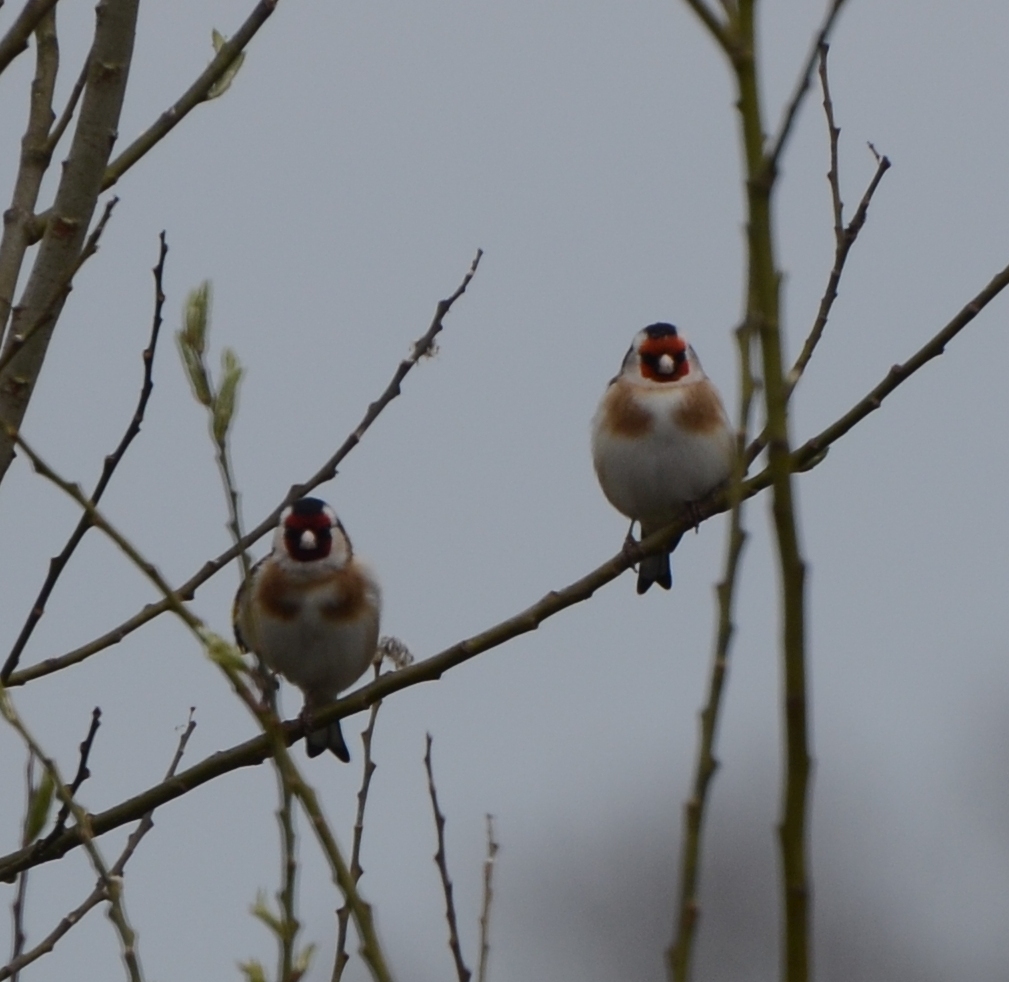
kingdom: Animalia
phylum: Chordata
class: Aves
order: Passeriformes
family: Fringillidae
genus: Carduelis
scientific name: Carduelis carduelis
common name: European goldfinch
